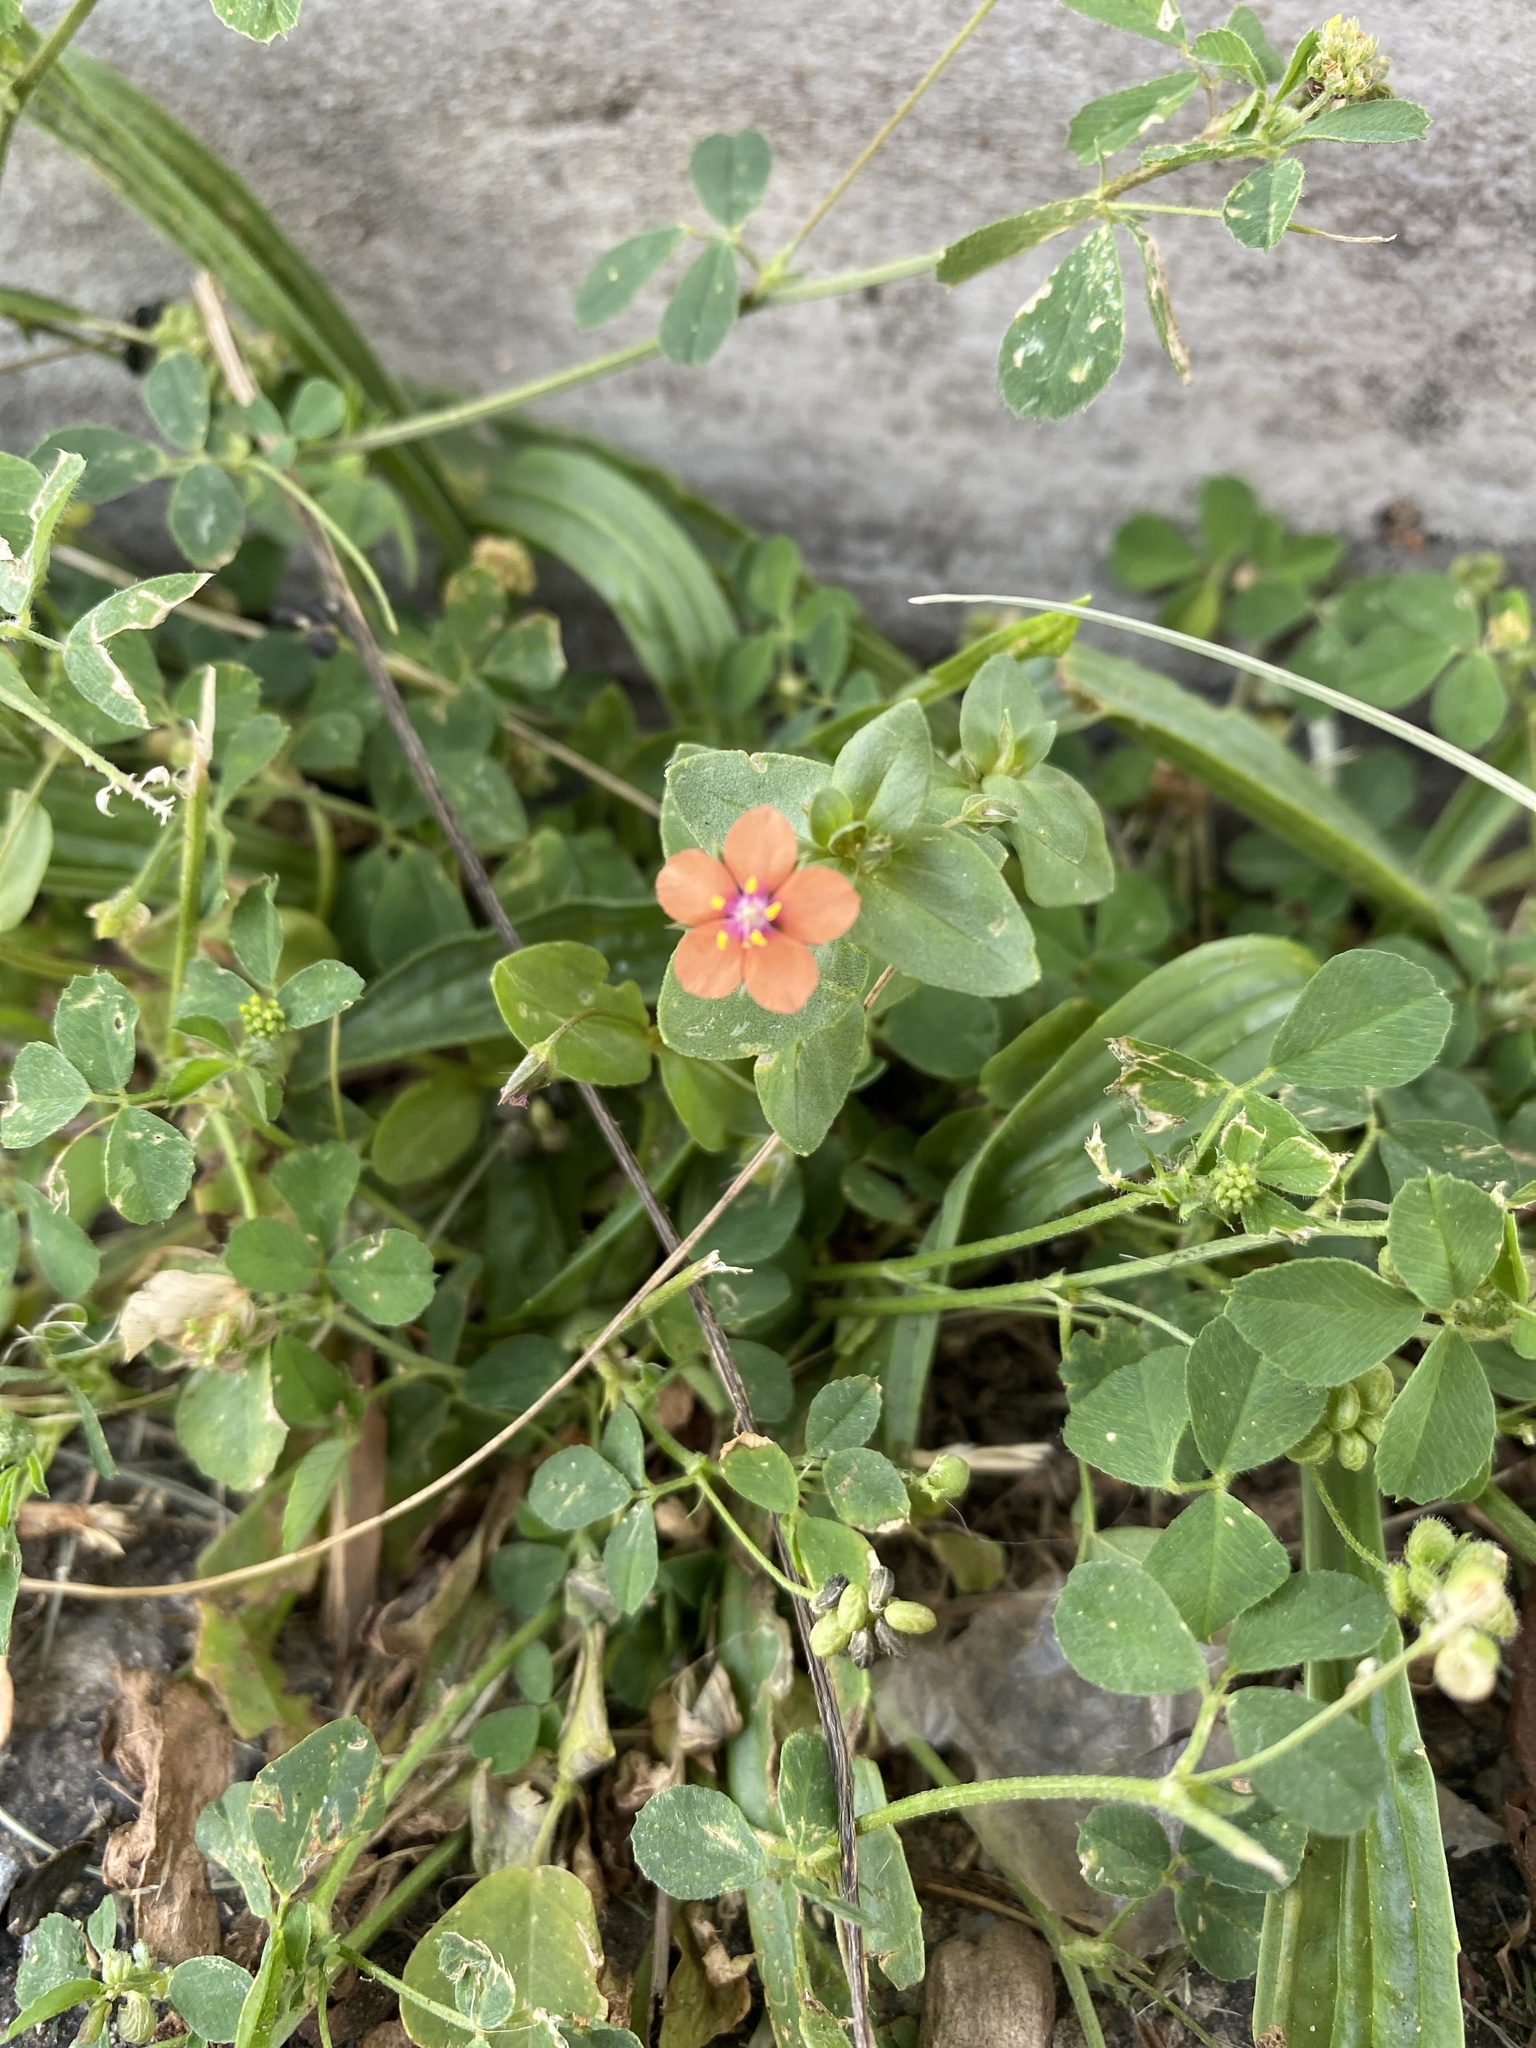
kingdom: Plantae
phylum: Tracheophyta
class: Magnoliopsida
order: Ericales
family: Primulaceae
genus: Lysimachia
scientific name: Lysimachia arvensis
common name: Scarlet pimpernel
